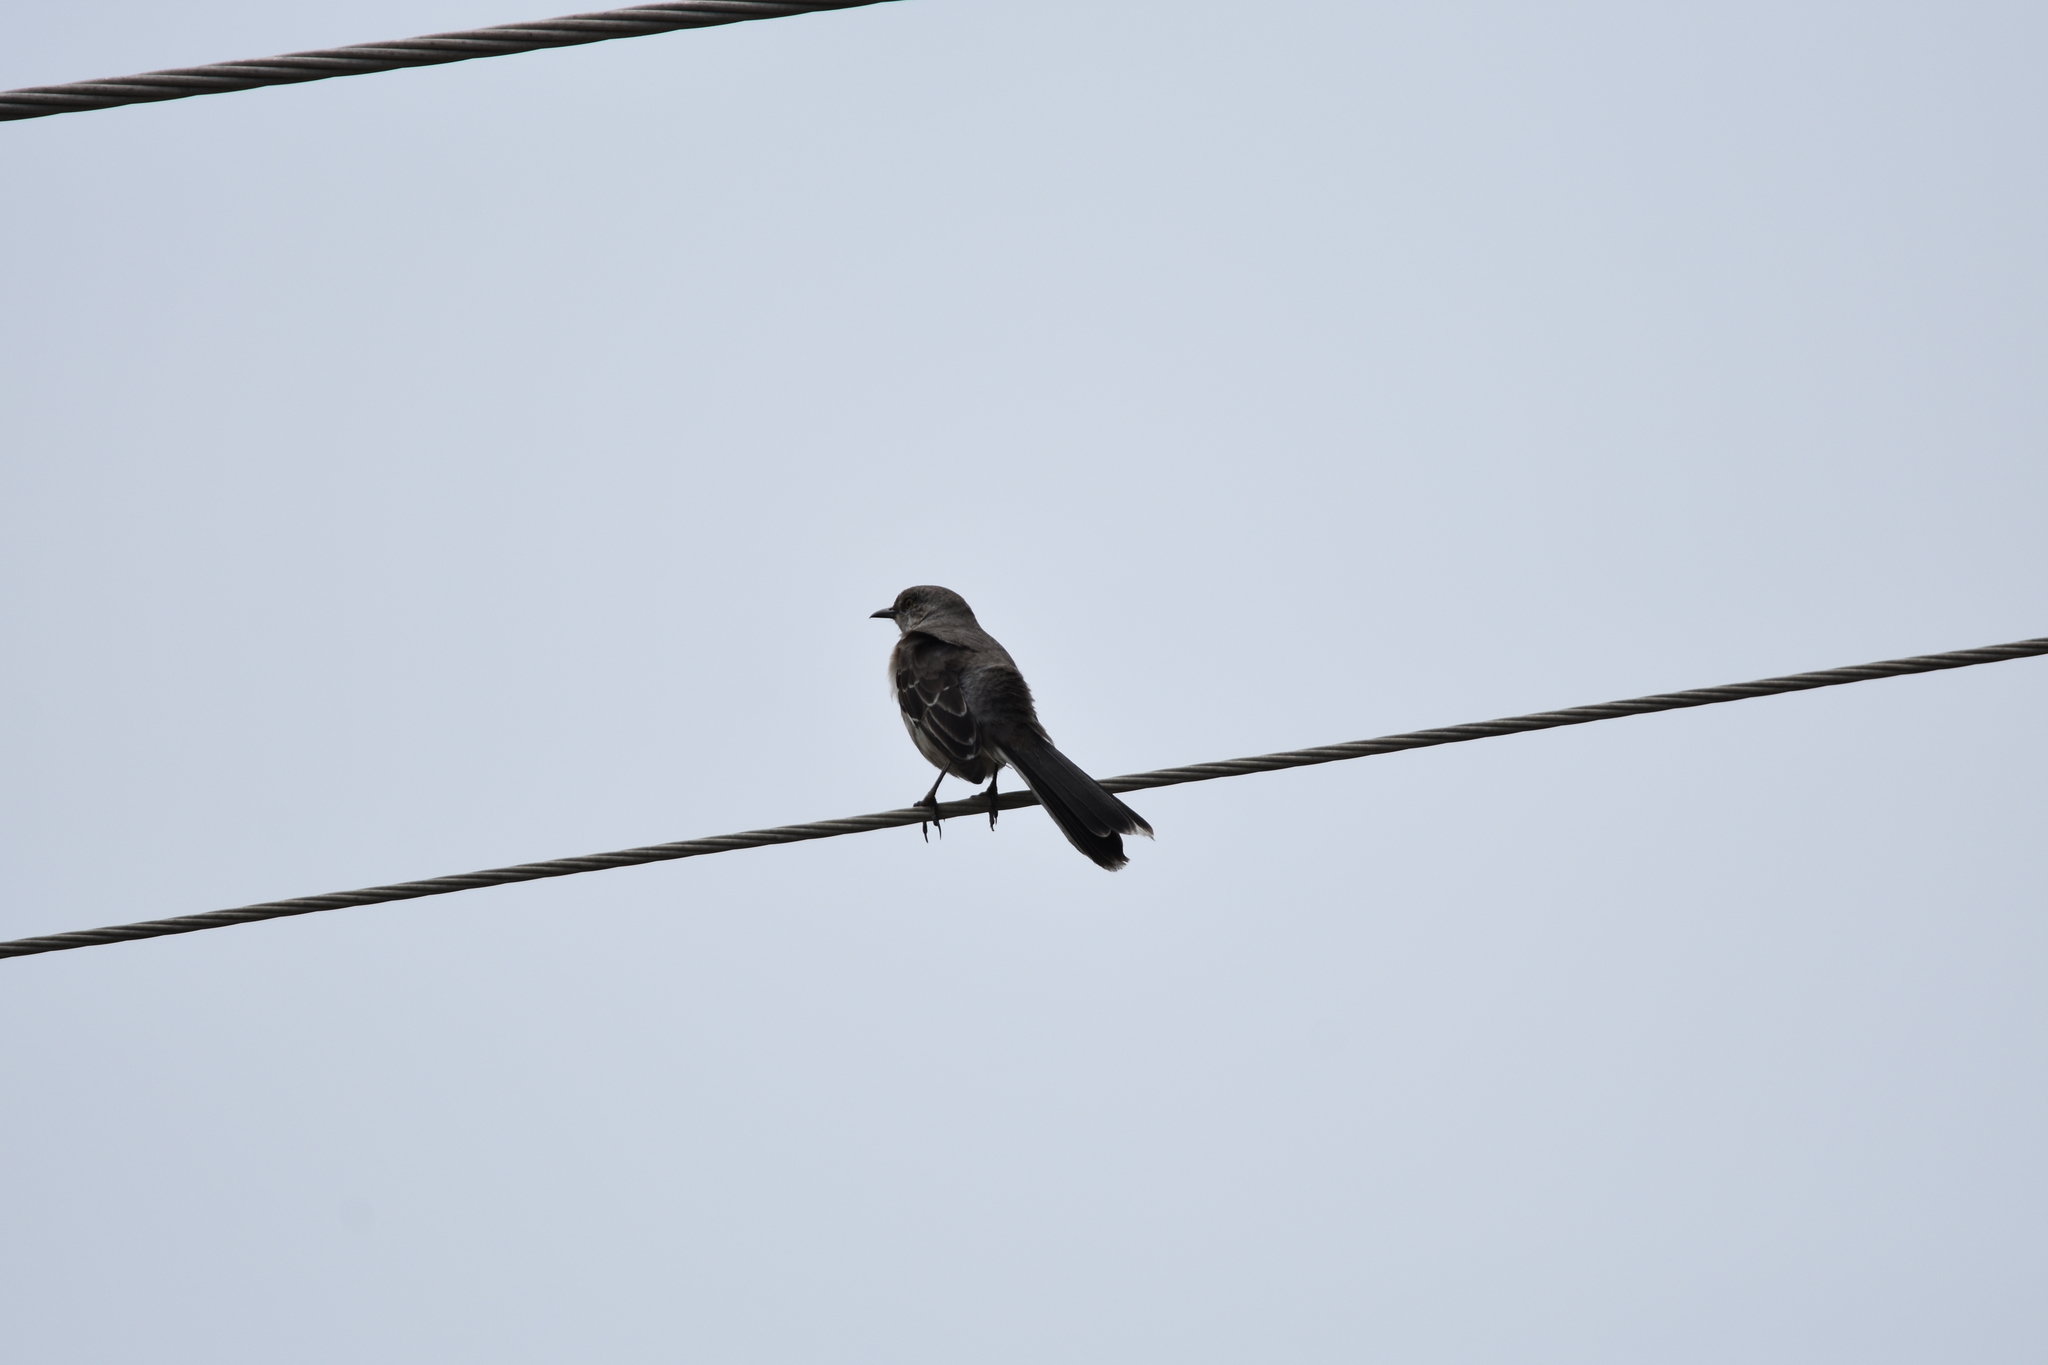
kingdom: Animalia
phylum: Chordata
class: Aves
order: Passeriformes
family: Mimidae
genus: Mimus
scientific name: Mimus polyglottos
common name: Northern mockingbird
